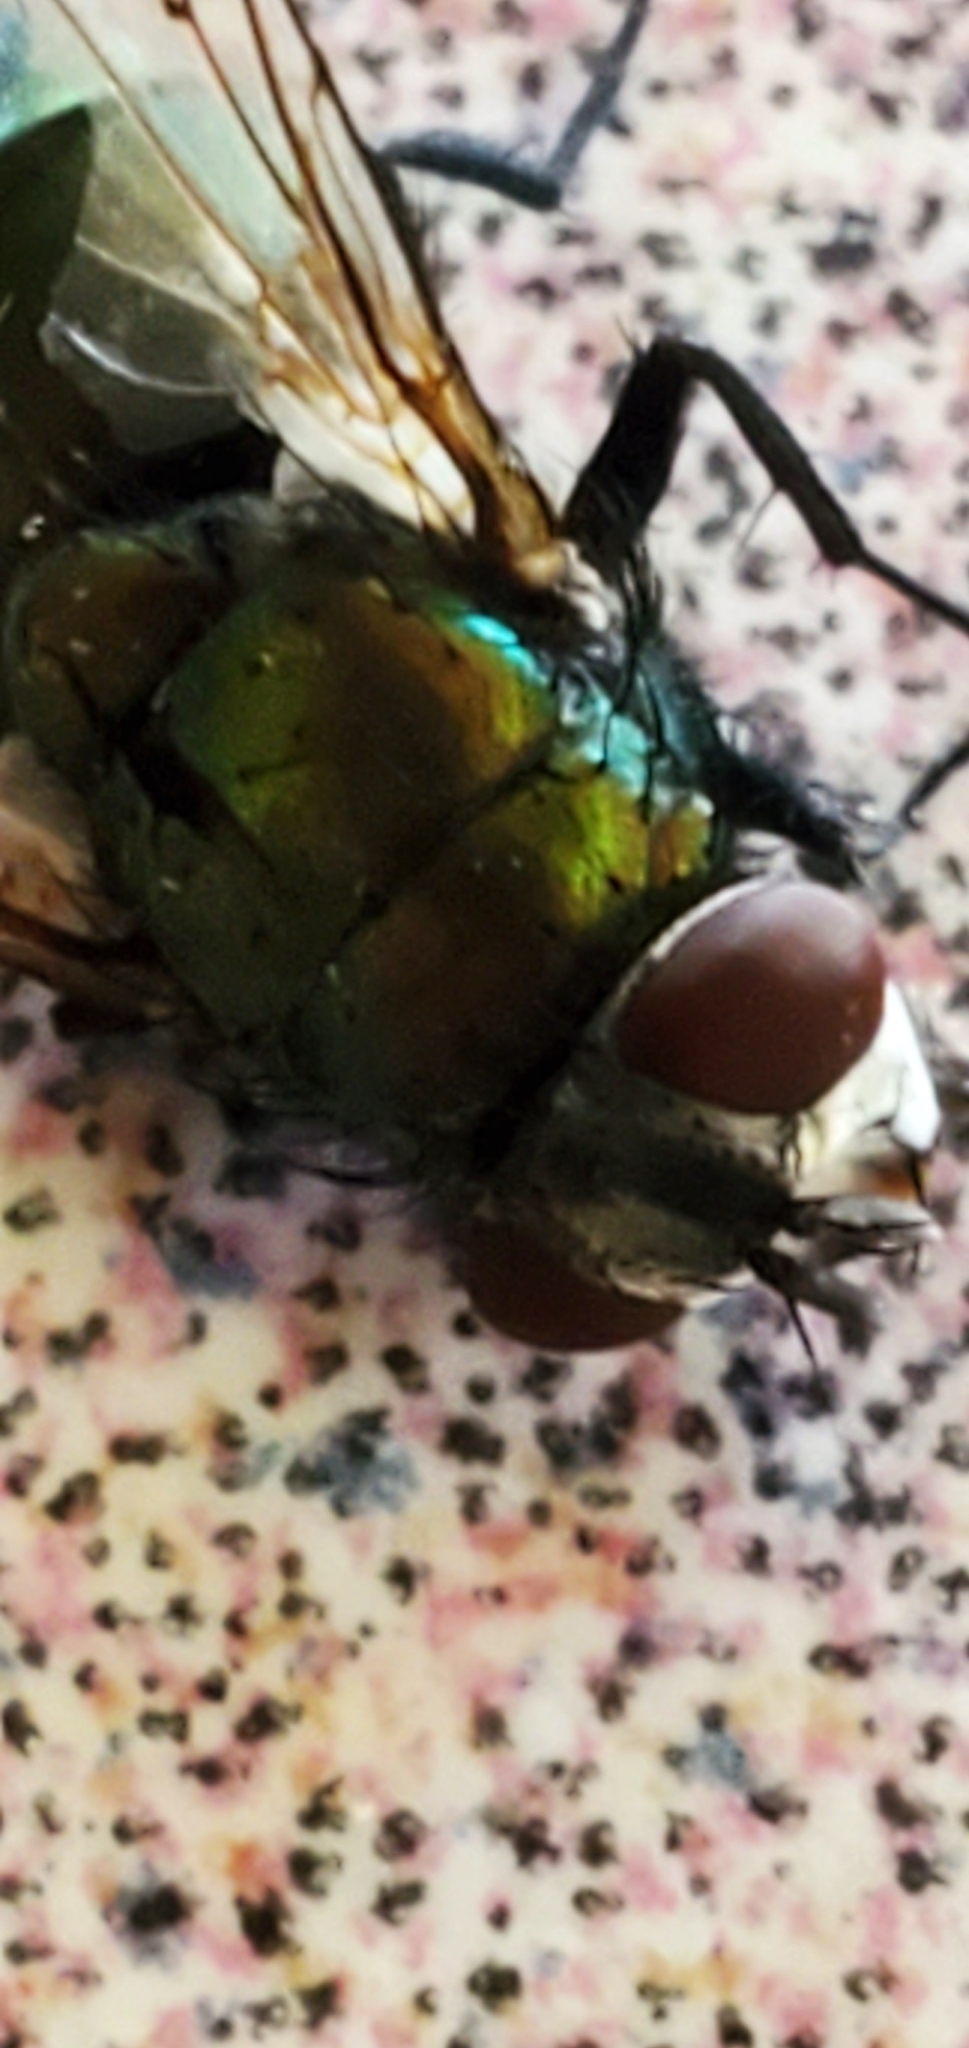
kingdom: Animalia
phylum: Arthropoda
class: Insecta
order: Diptera
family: Calliphoridae
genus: Lucilia
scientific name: Lucilia sericata
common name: Blow fly
